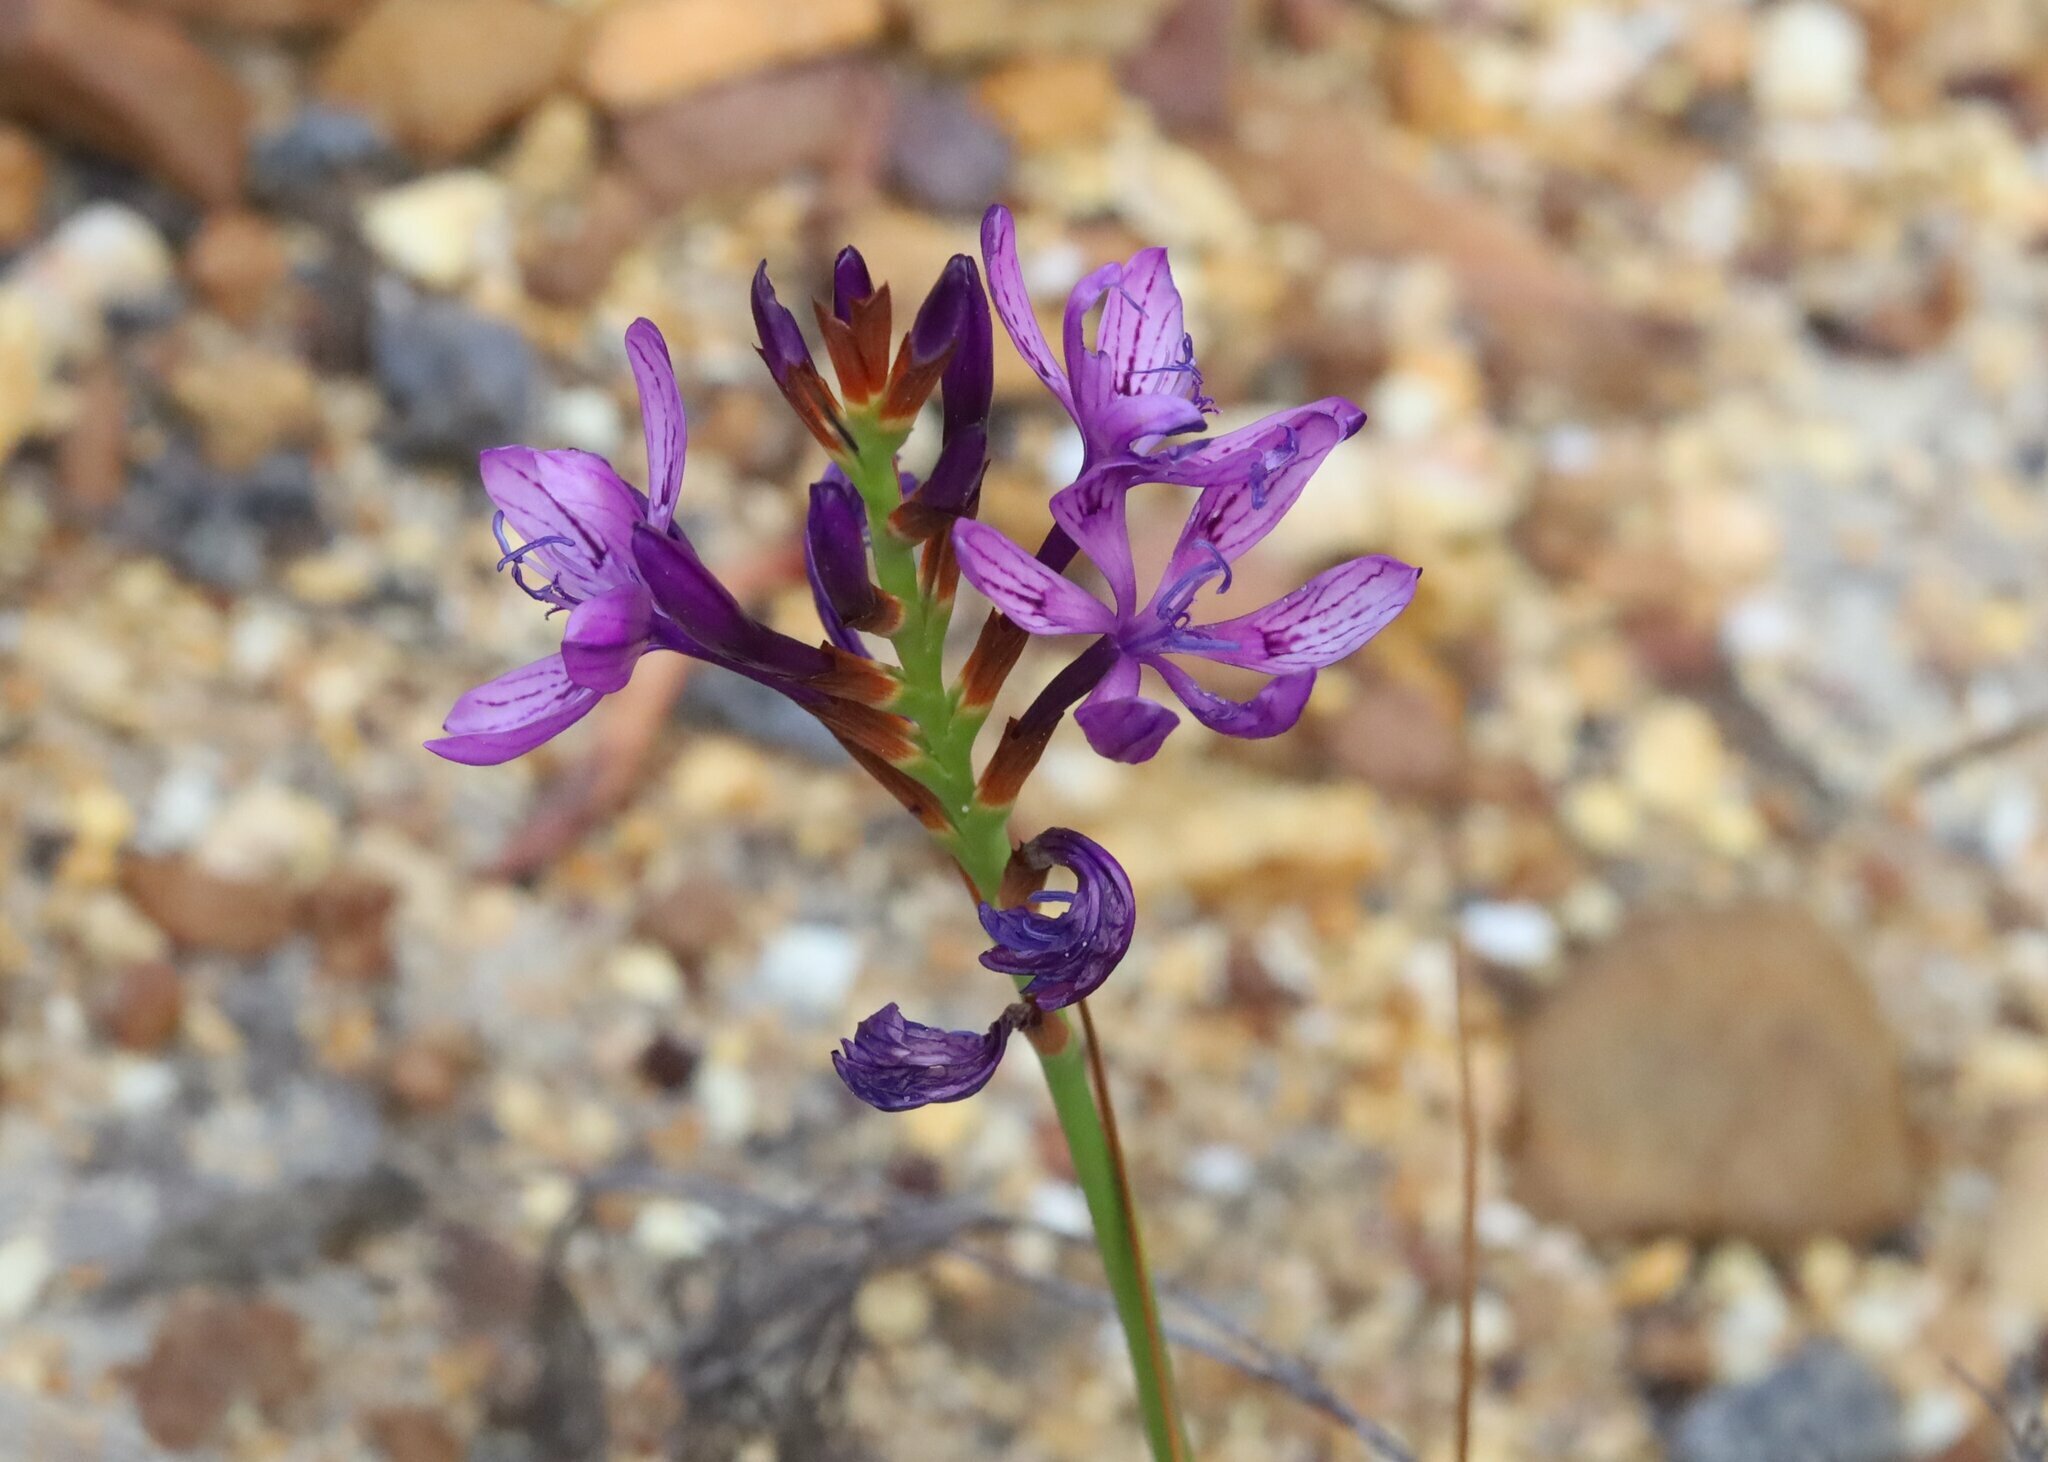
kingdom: Plantae
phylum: Tracheophyta
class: Liliopsida
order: Asparagales
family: Iridaceae
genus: Thereianthus
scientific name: Thereianthus bracteolatus
